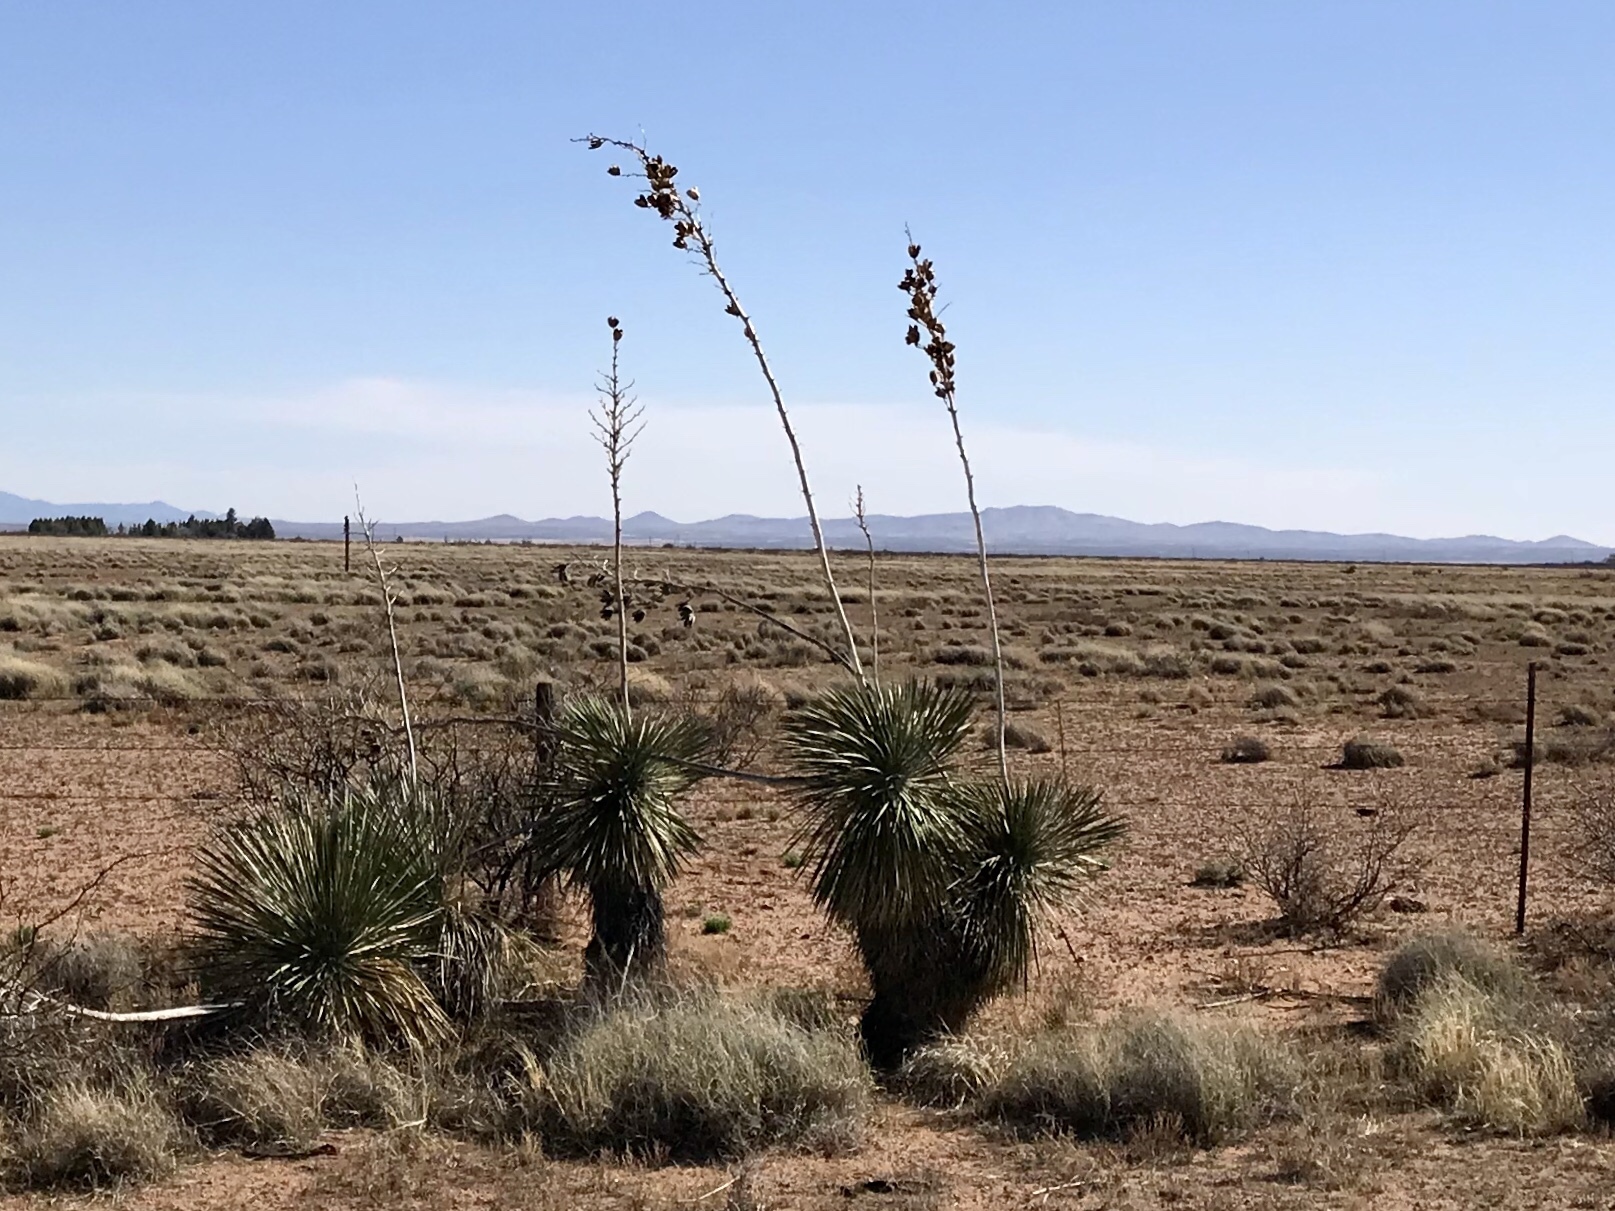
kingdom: Plantae
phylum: Tracheophyta
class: Liliopsida
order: Asparagales
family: Asparagaceae
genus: Yucca
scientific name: Yucca elata
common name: Palmella
